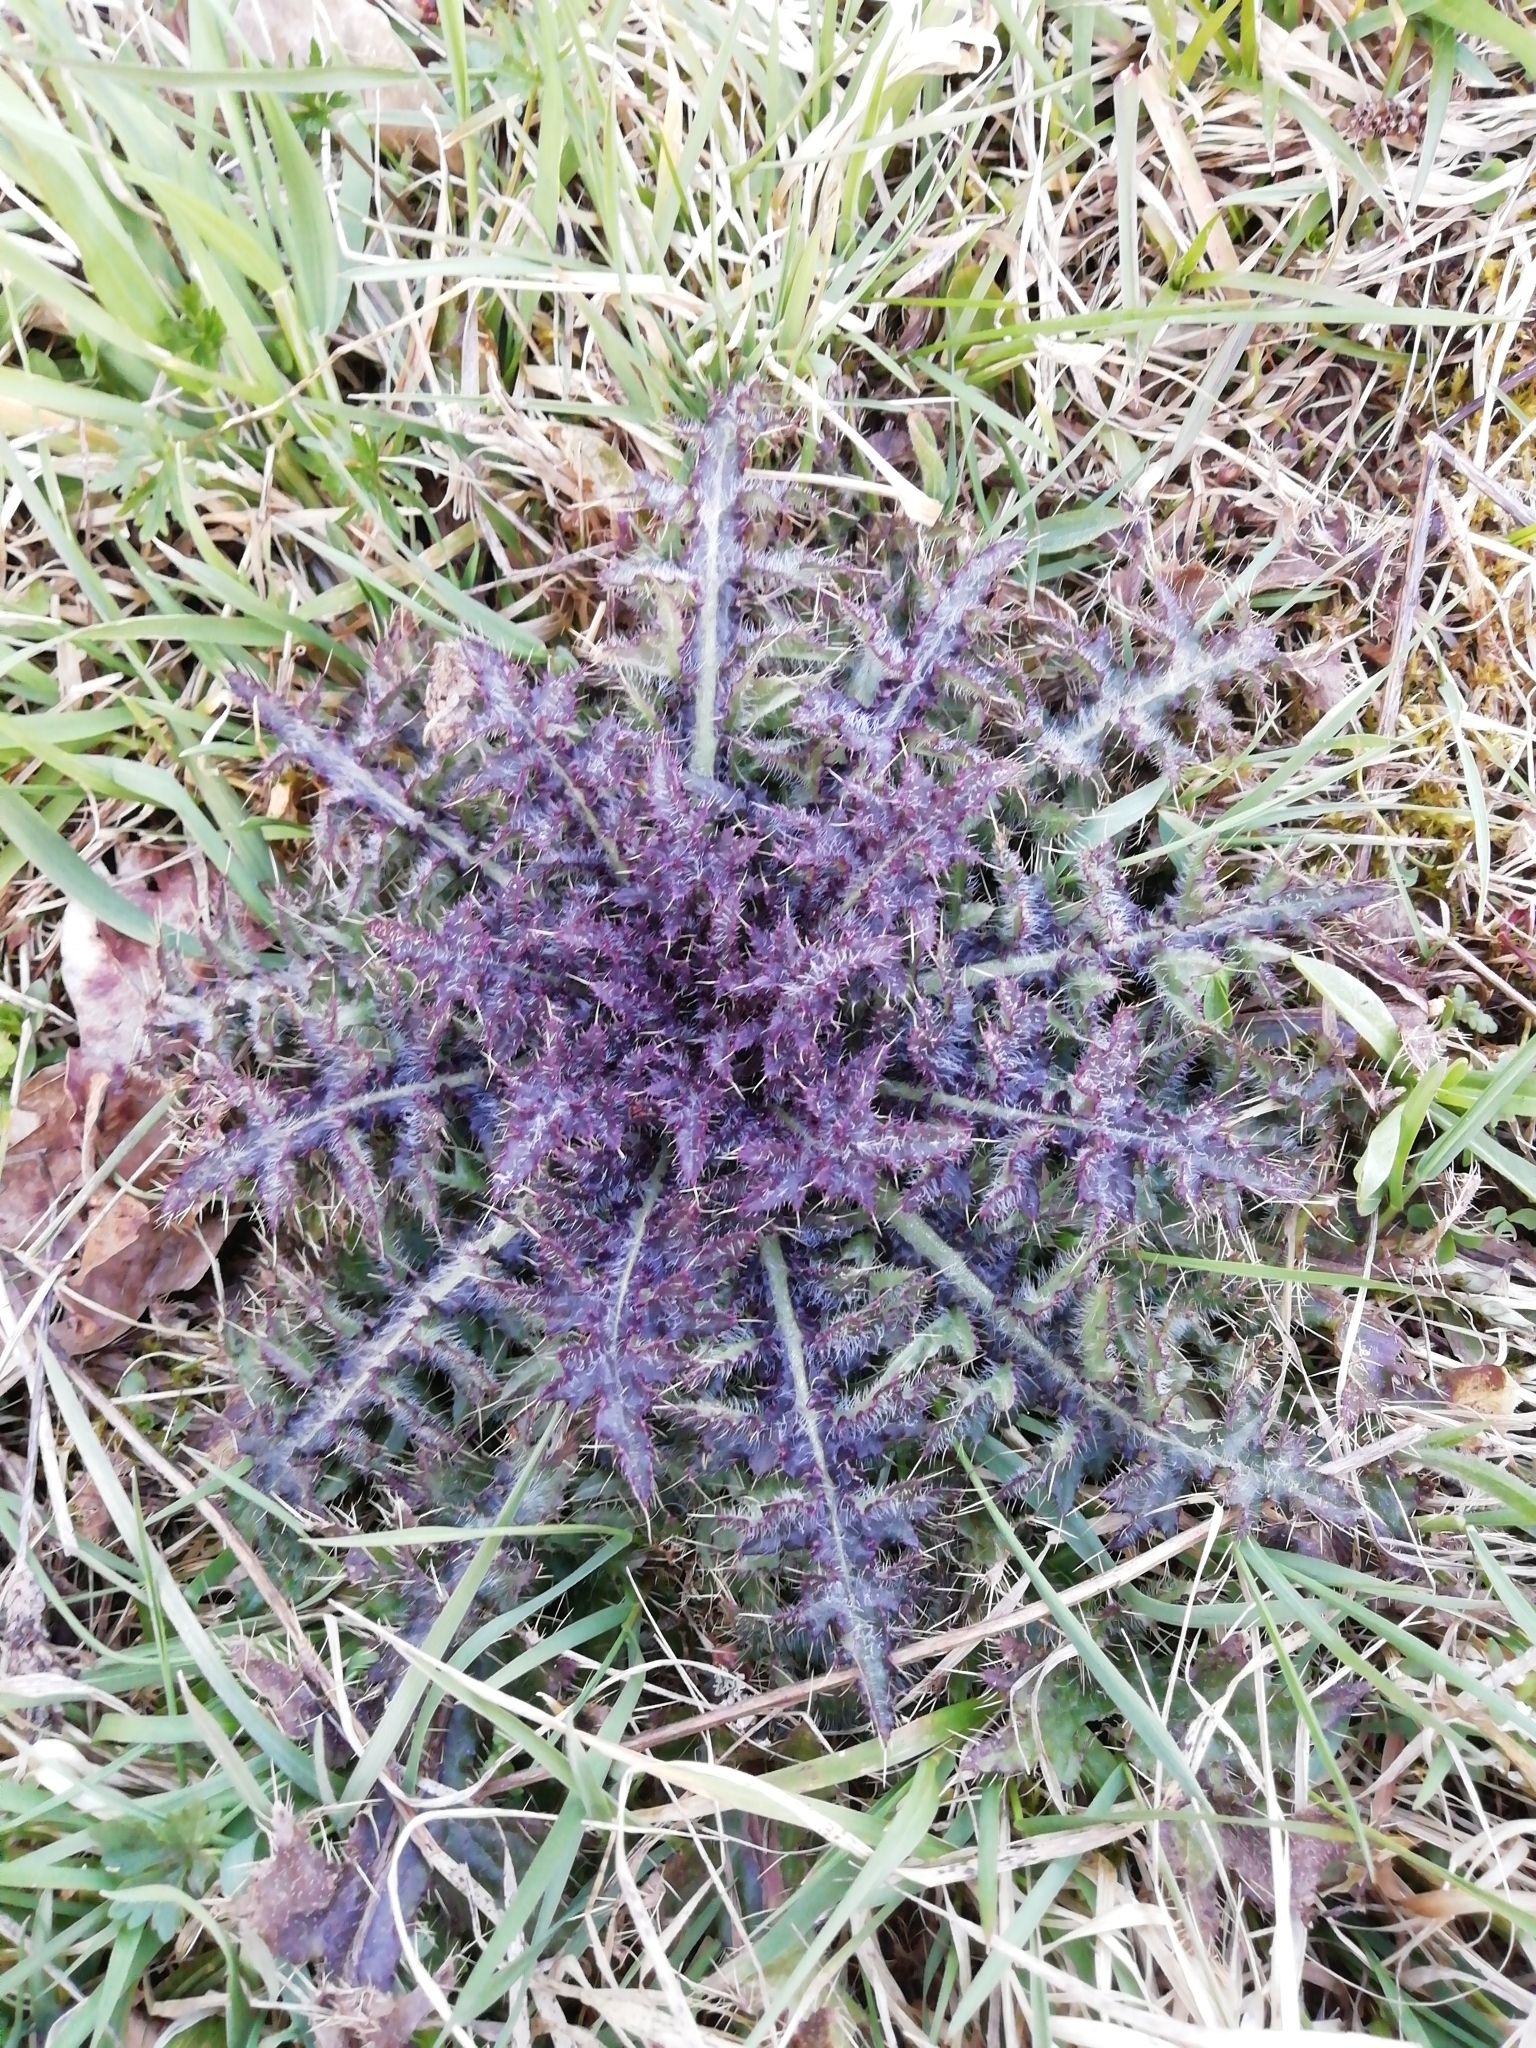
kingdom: Plantae
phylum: Tracheophyta
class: Magnoliopsida
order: Asterales
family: Asteraceae
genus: Cirsium
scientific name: Cirsium palustre
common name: Marsh thistle
